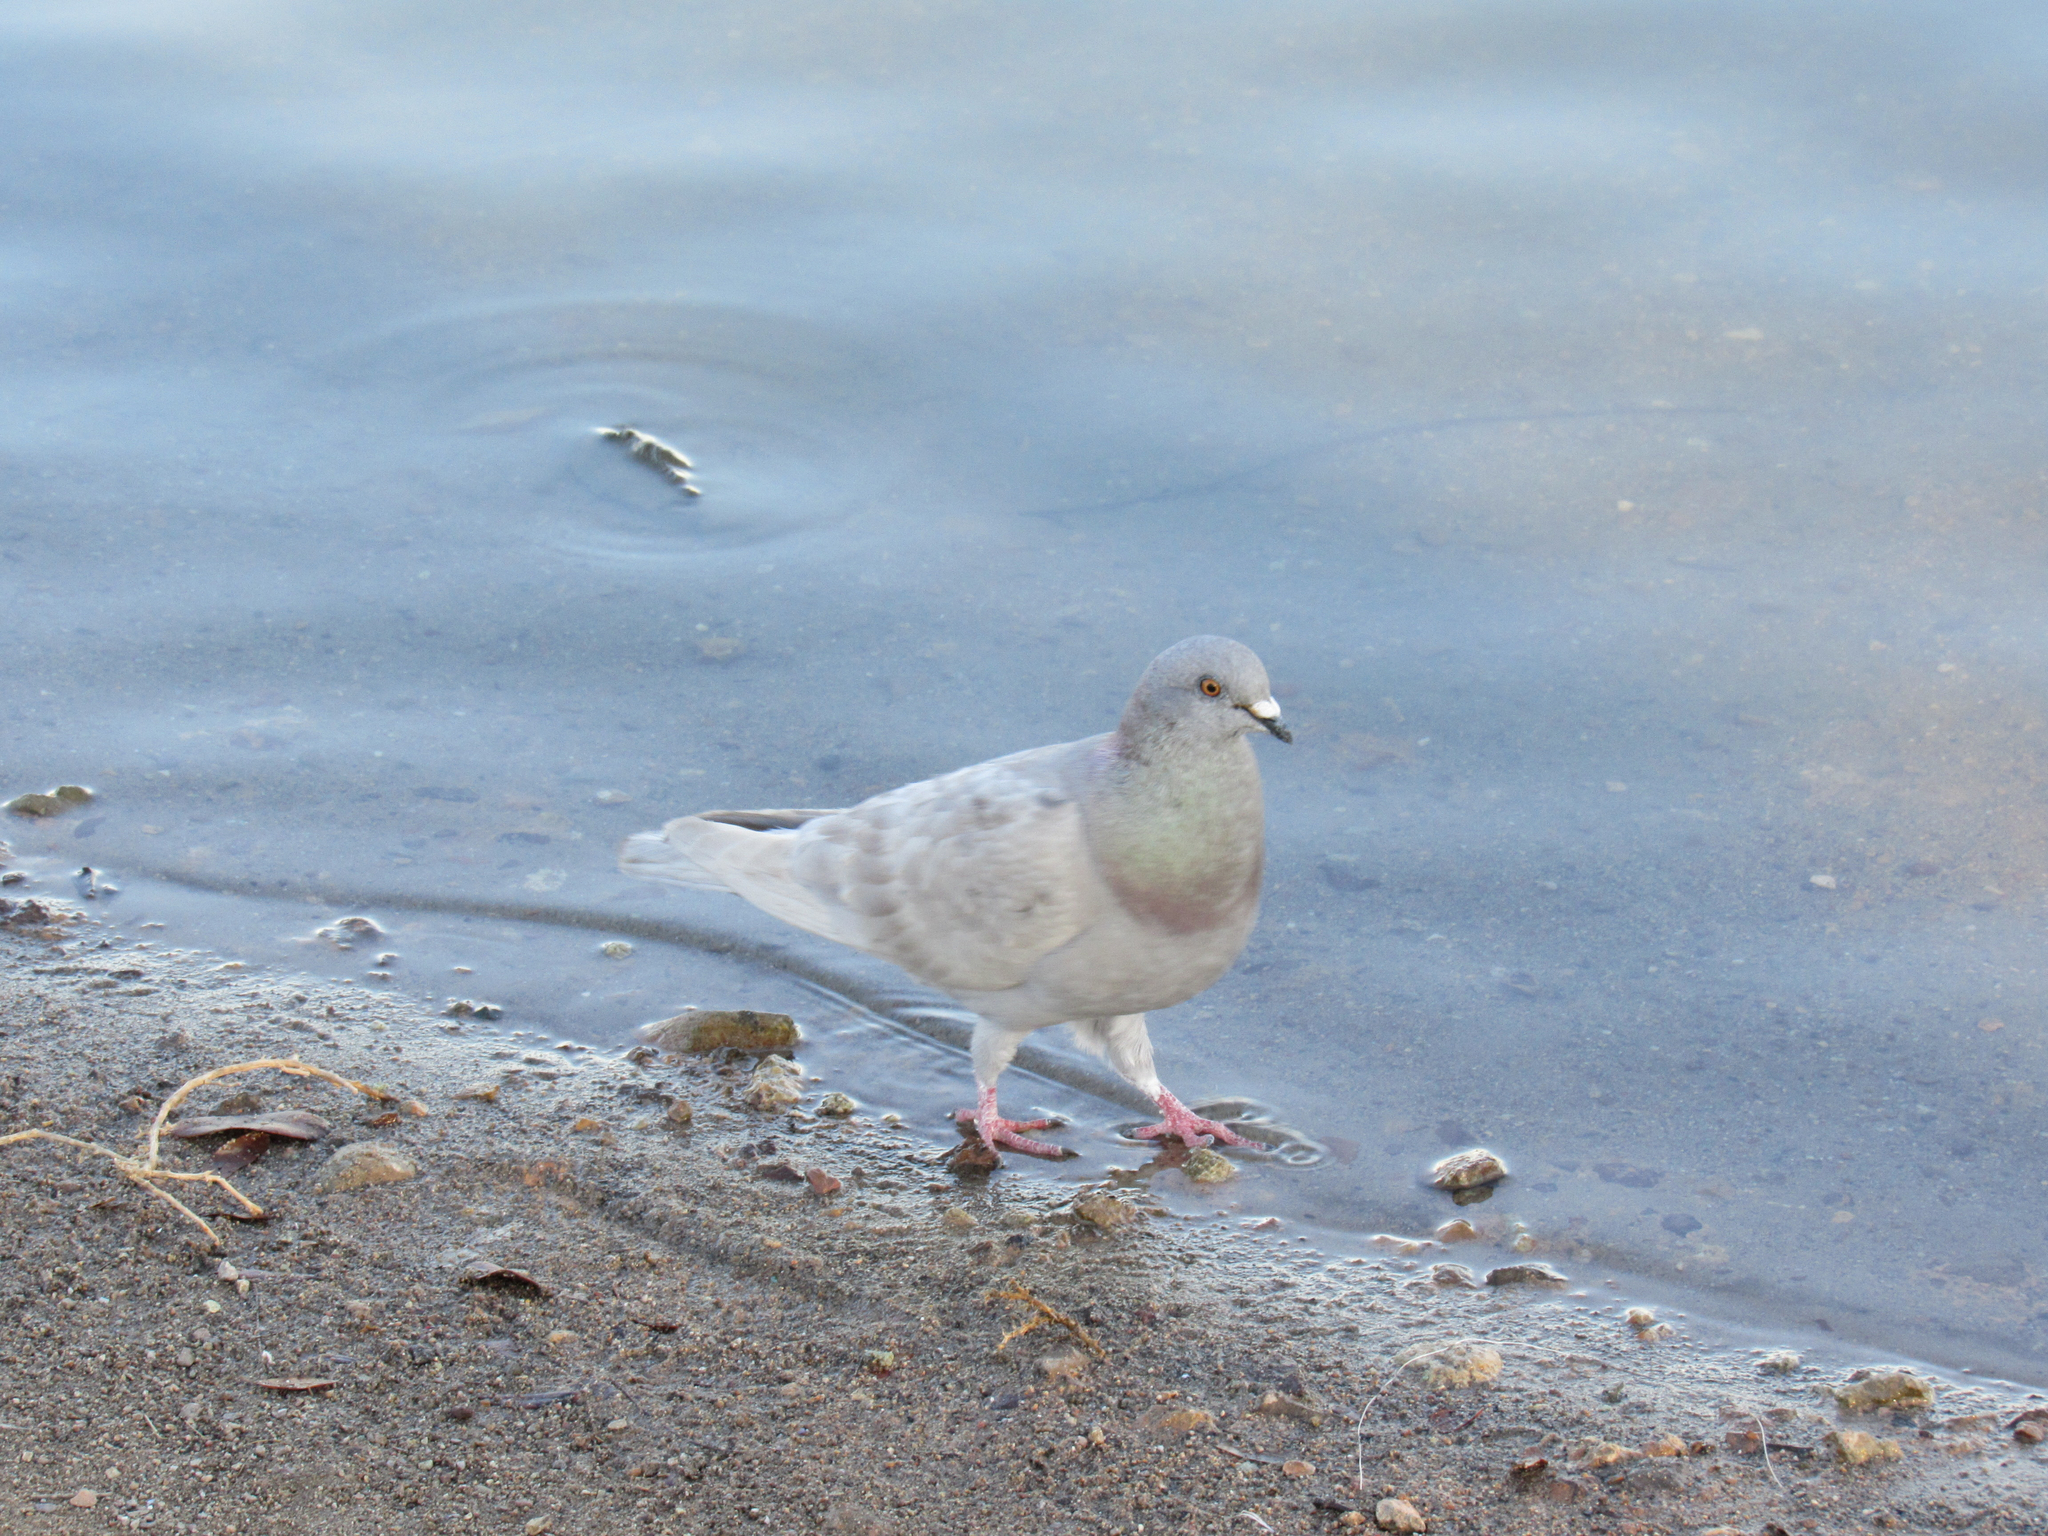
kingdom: Animalia
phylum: Chordata
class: Aves
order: Columbiformes
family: Columbidae
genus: Columba
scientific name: Columba livia
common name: Rock pigeon
